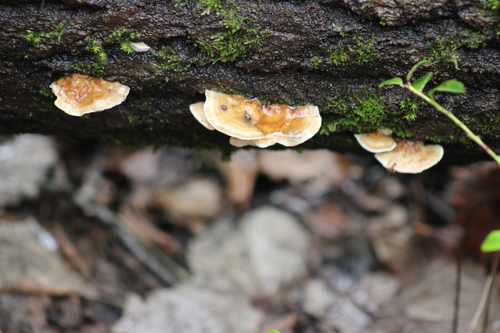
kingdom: Fungi
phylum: Basidiomycota
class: Agaricomycetes
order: Polyporales
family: Polyporaceae
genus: Trametes
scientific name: Trametes ochracea
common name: Ochre bracket
